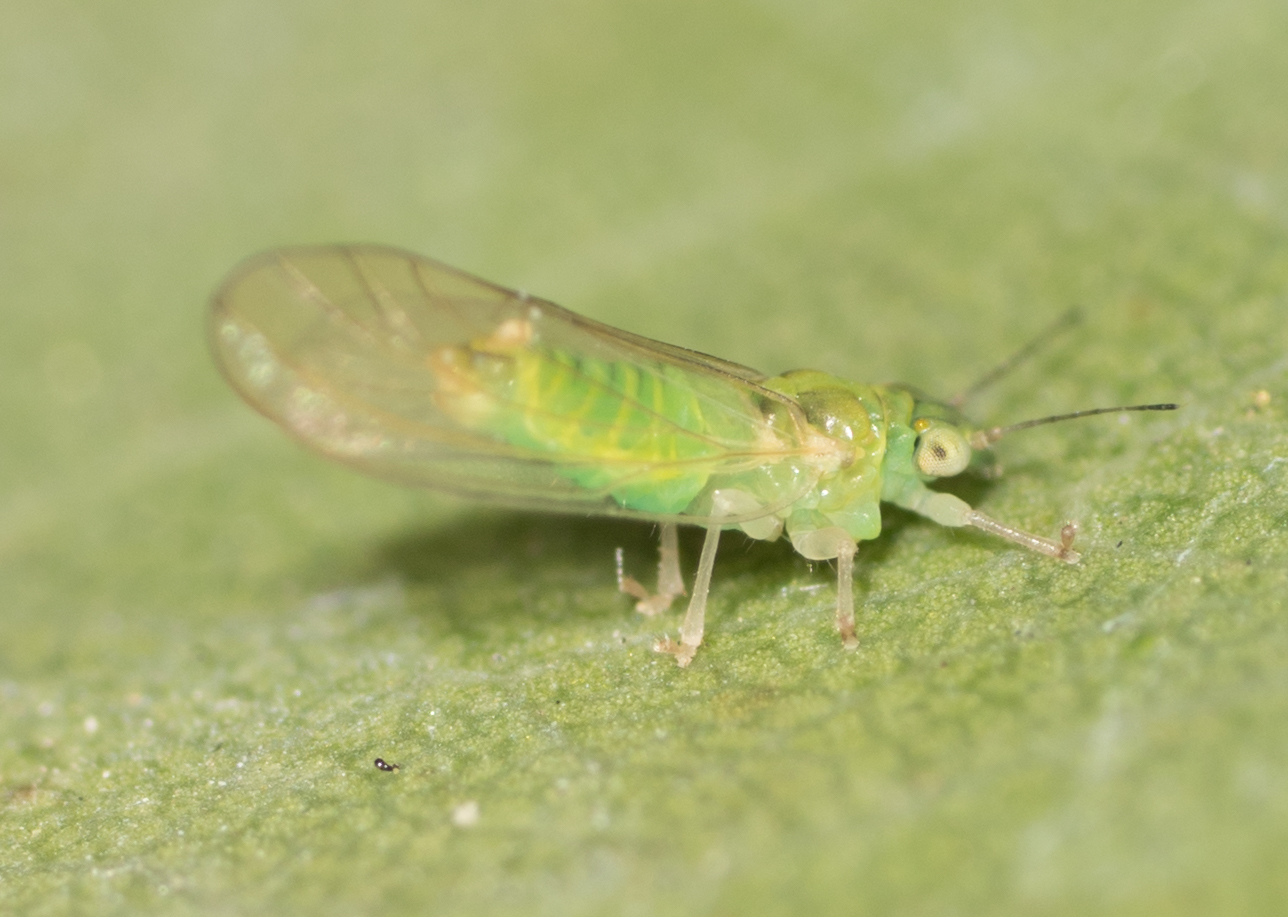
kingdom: Animalia
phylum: Arthropoda
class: Insecta
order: Hemiptera
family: Aphalaridae
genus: Eucalyptolyma
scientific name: Eucalyptolyma maideni
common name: Spotted gum lerp psyllid
